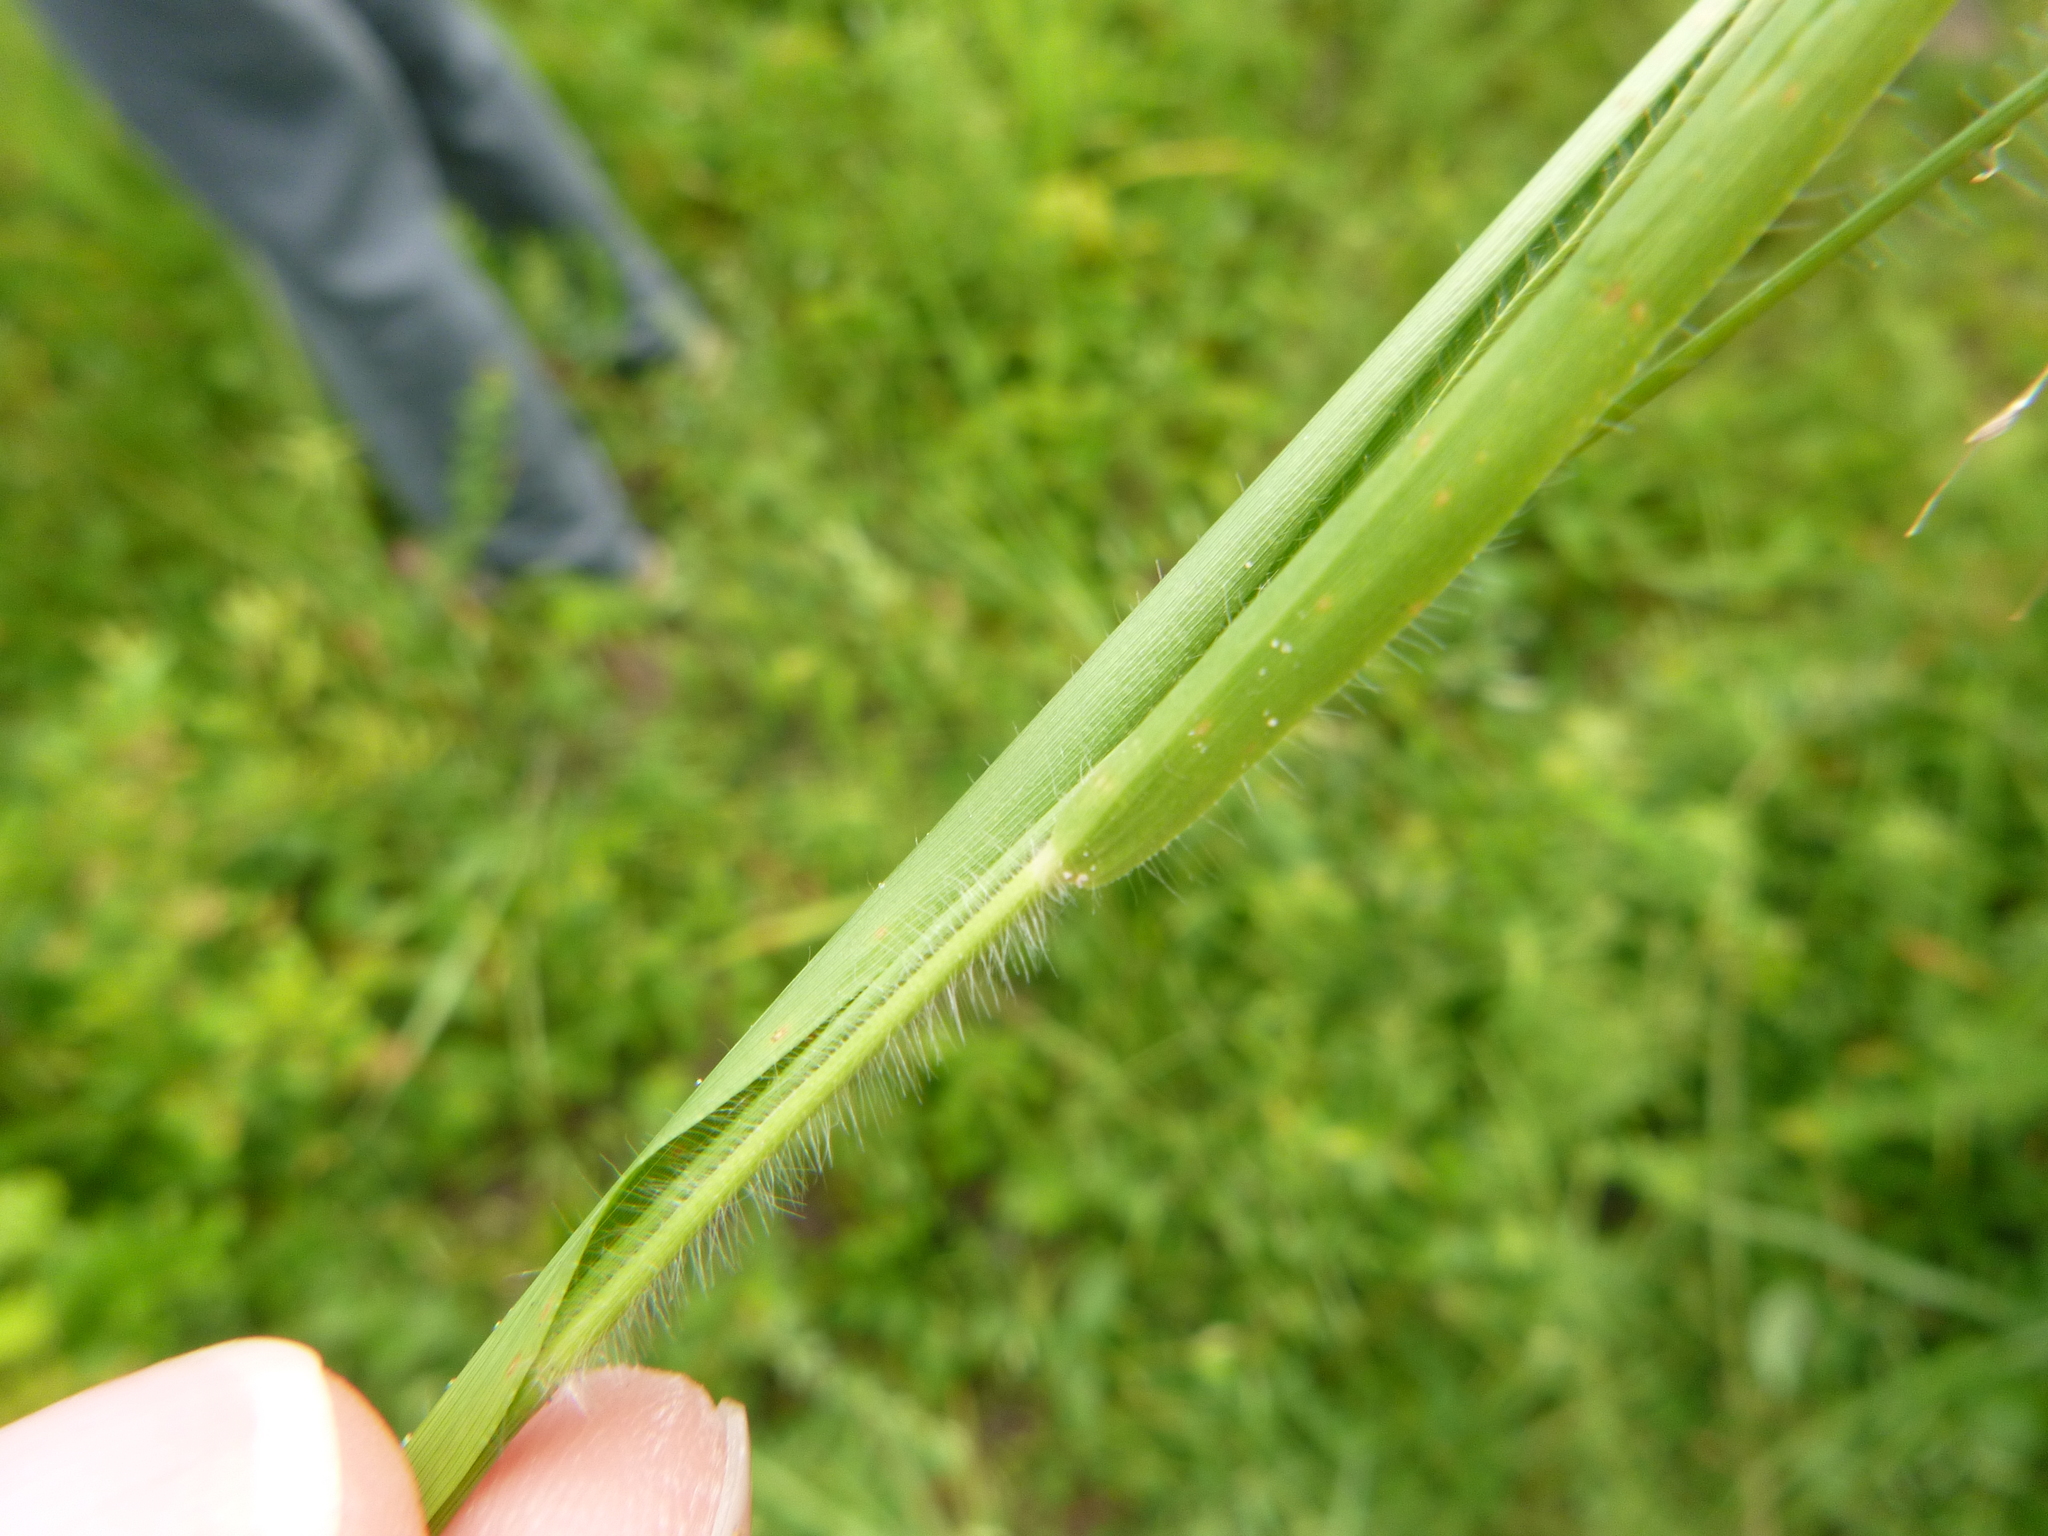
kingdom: Plantae
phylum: Tracheophyta
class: Liliopsida
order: Poales
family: Poaceae
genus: Dichanthelium
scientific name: Dichanthelium laxiflorum
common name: Soft-tuft panic grass
